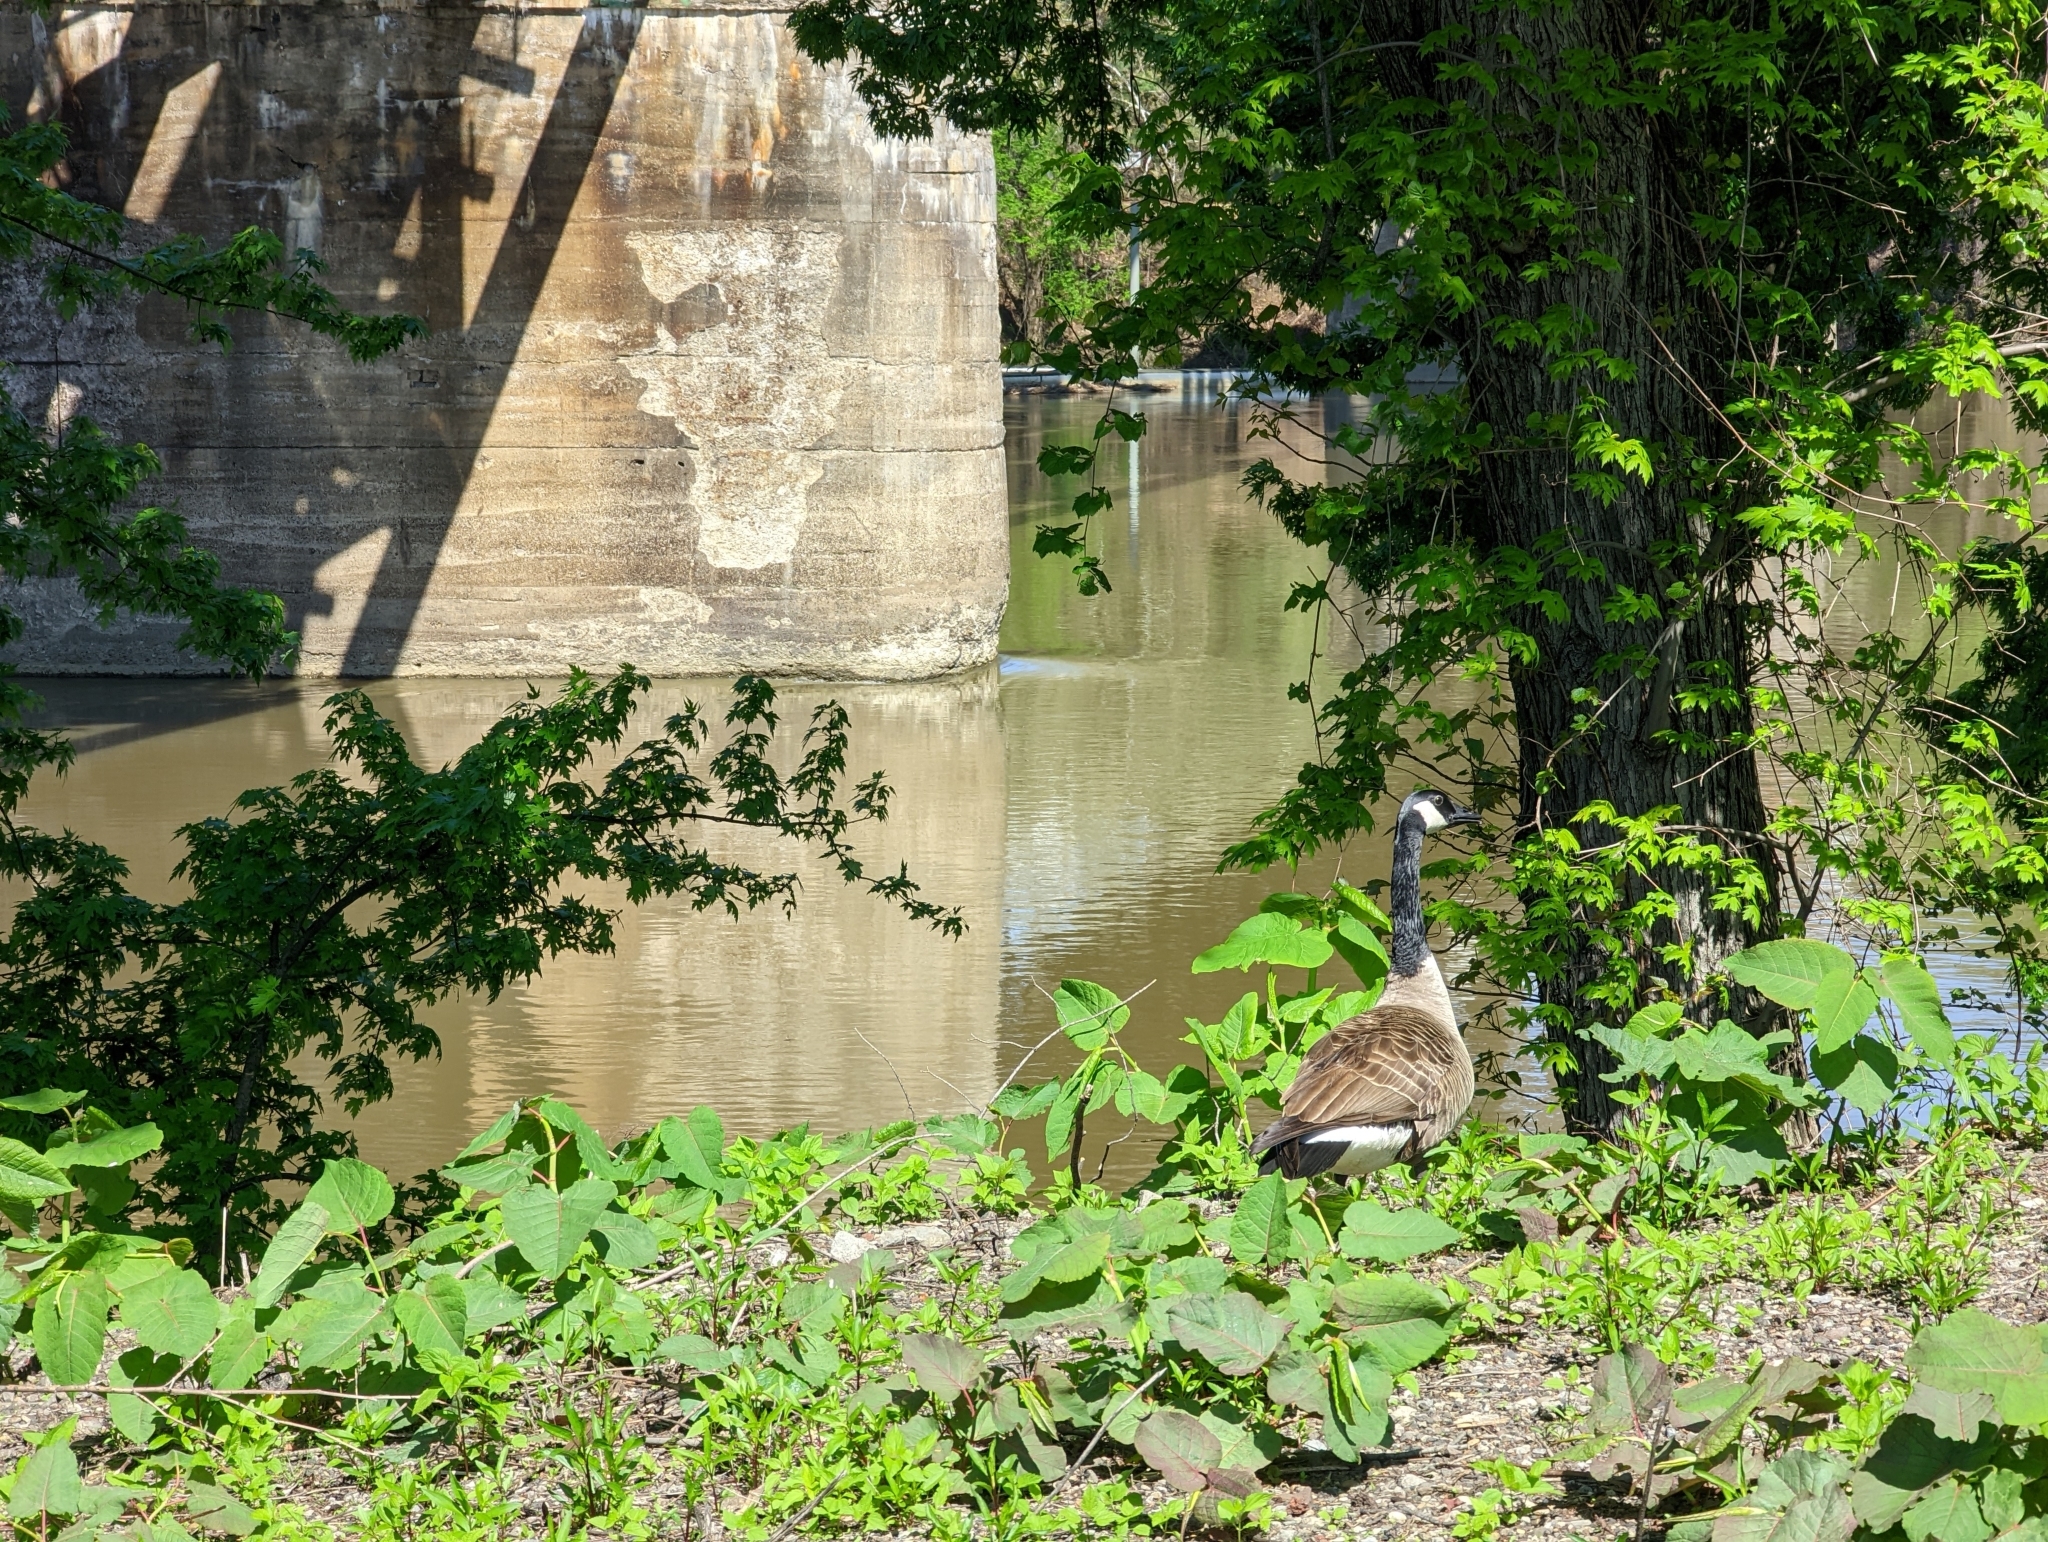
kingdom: Animalia
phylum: Chordata
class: Aves
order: Anseriformes
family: Anatidae
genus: Branta
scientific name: Branta canadensis
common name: Canada goose
